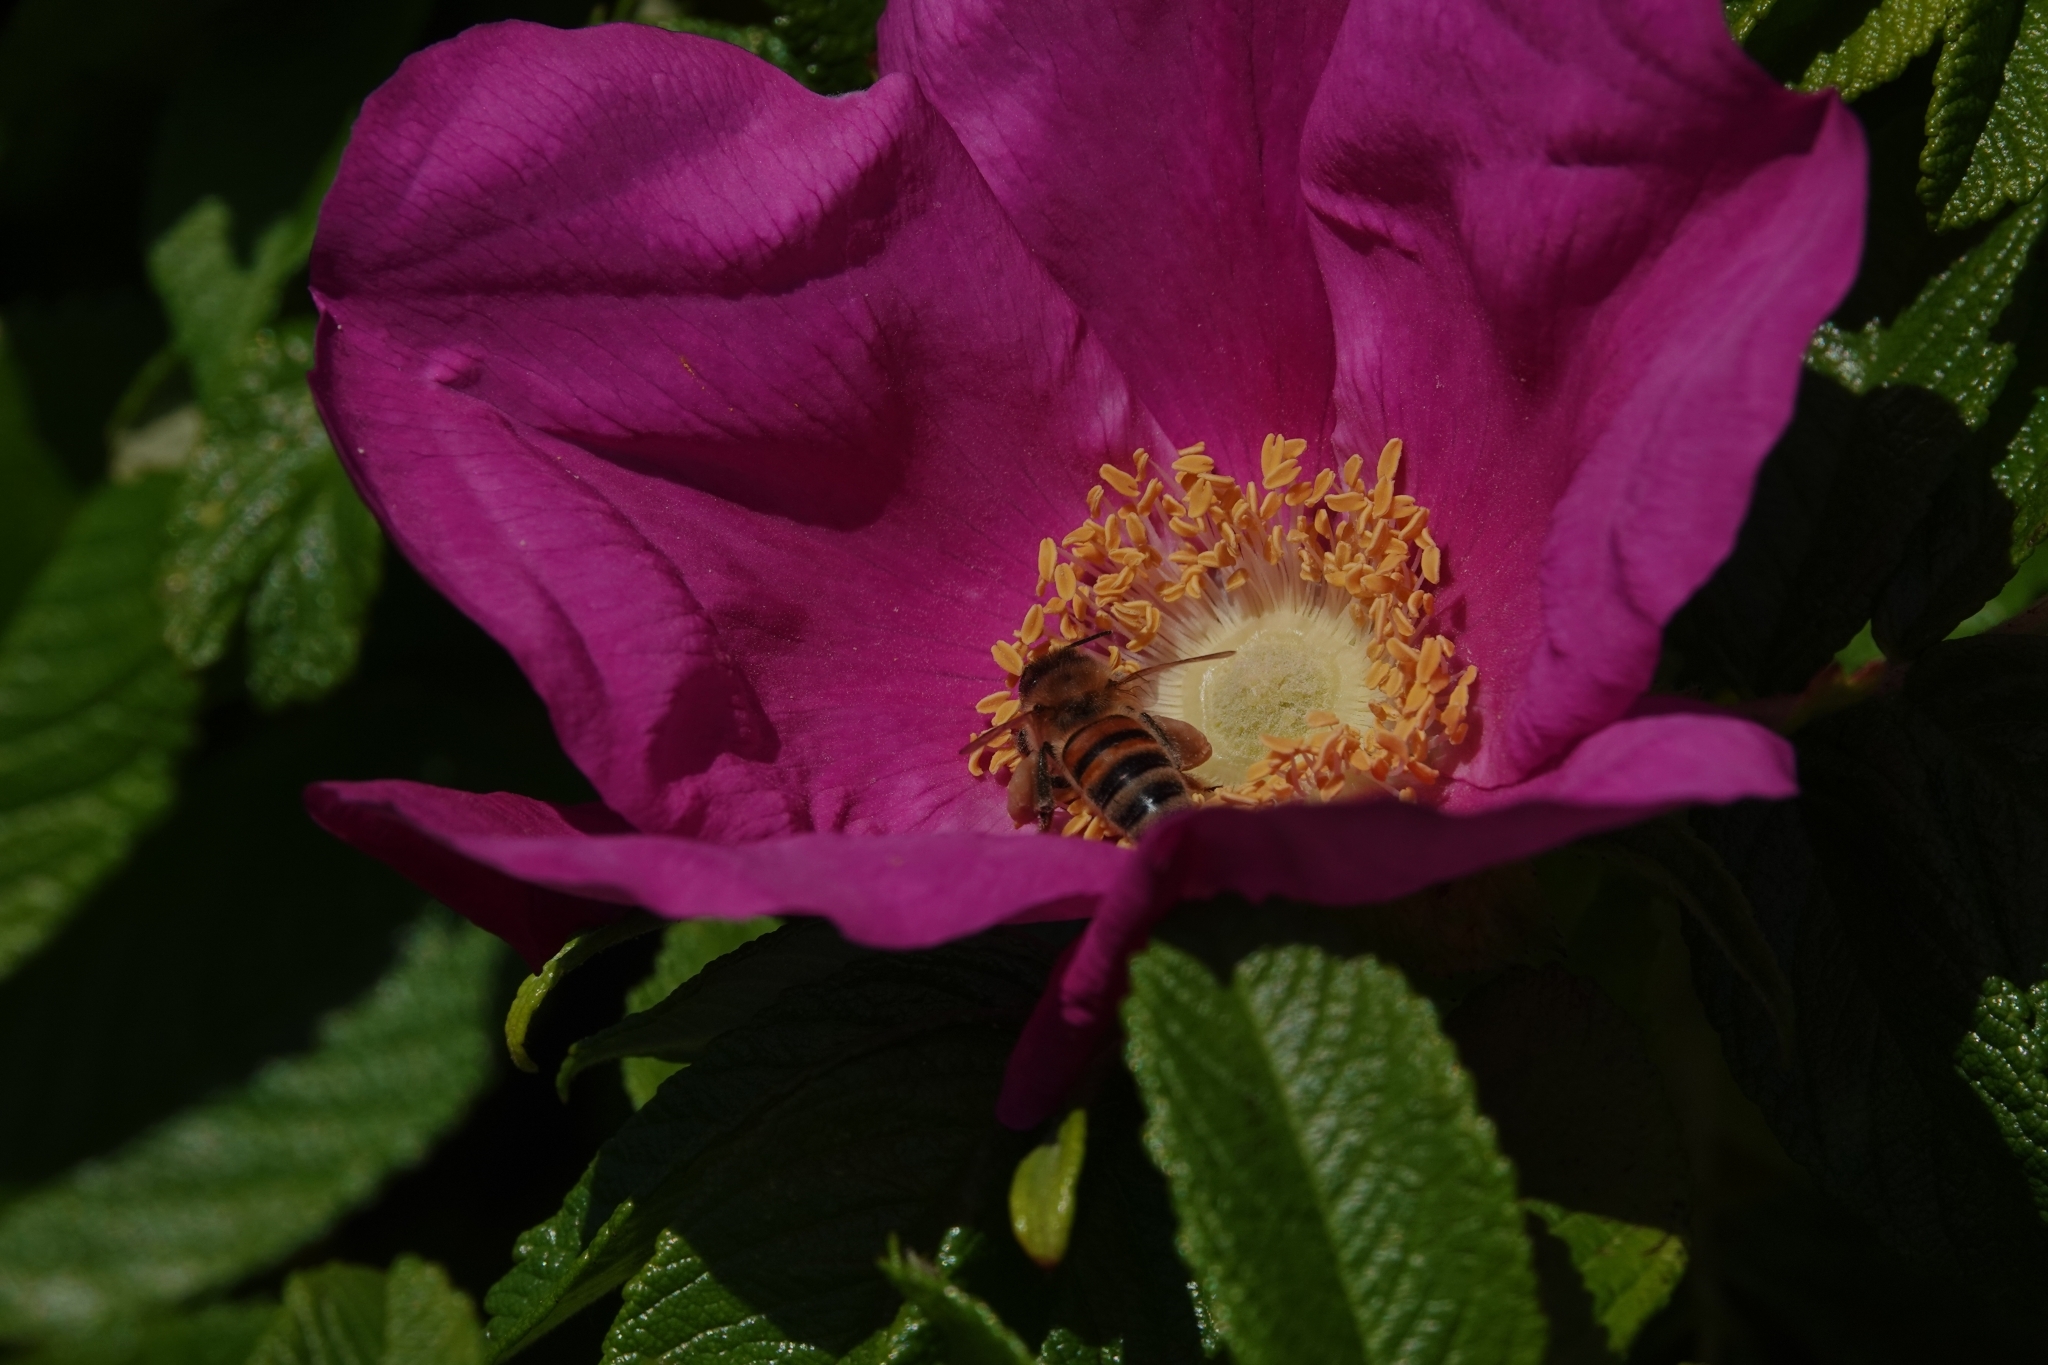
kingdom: Plantae
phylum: Tracheophyta
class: Magnoliopsida
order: Rosales
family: Rosaceae
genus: Rosa
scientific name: Rosa rugosa
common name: Japanese rose
